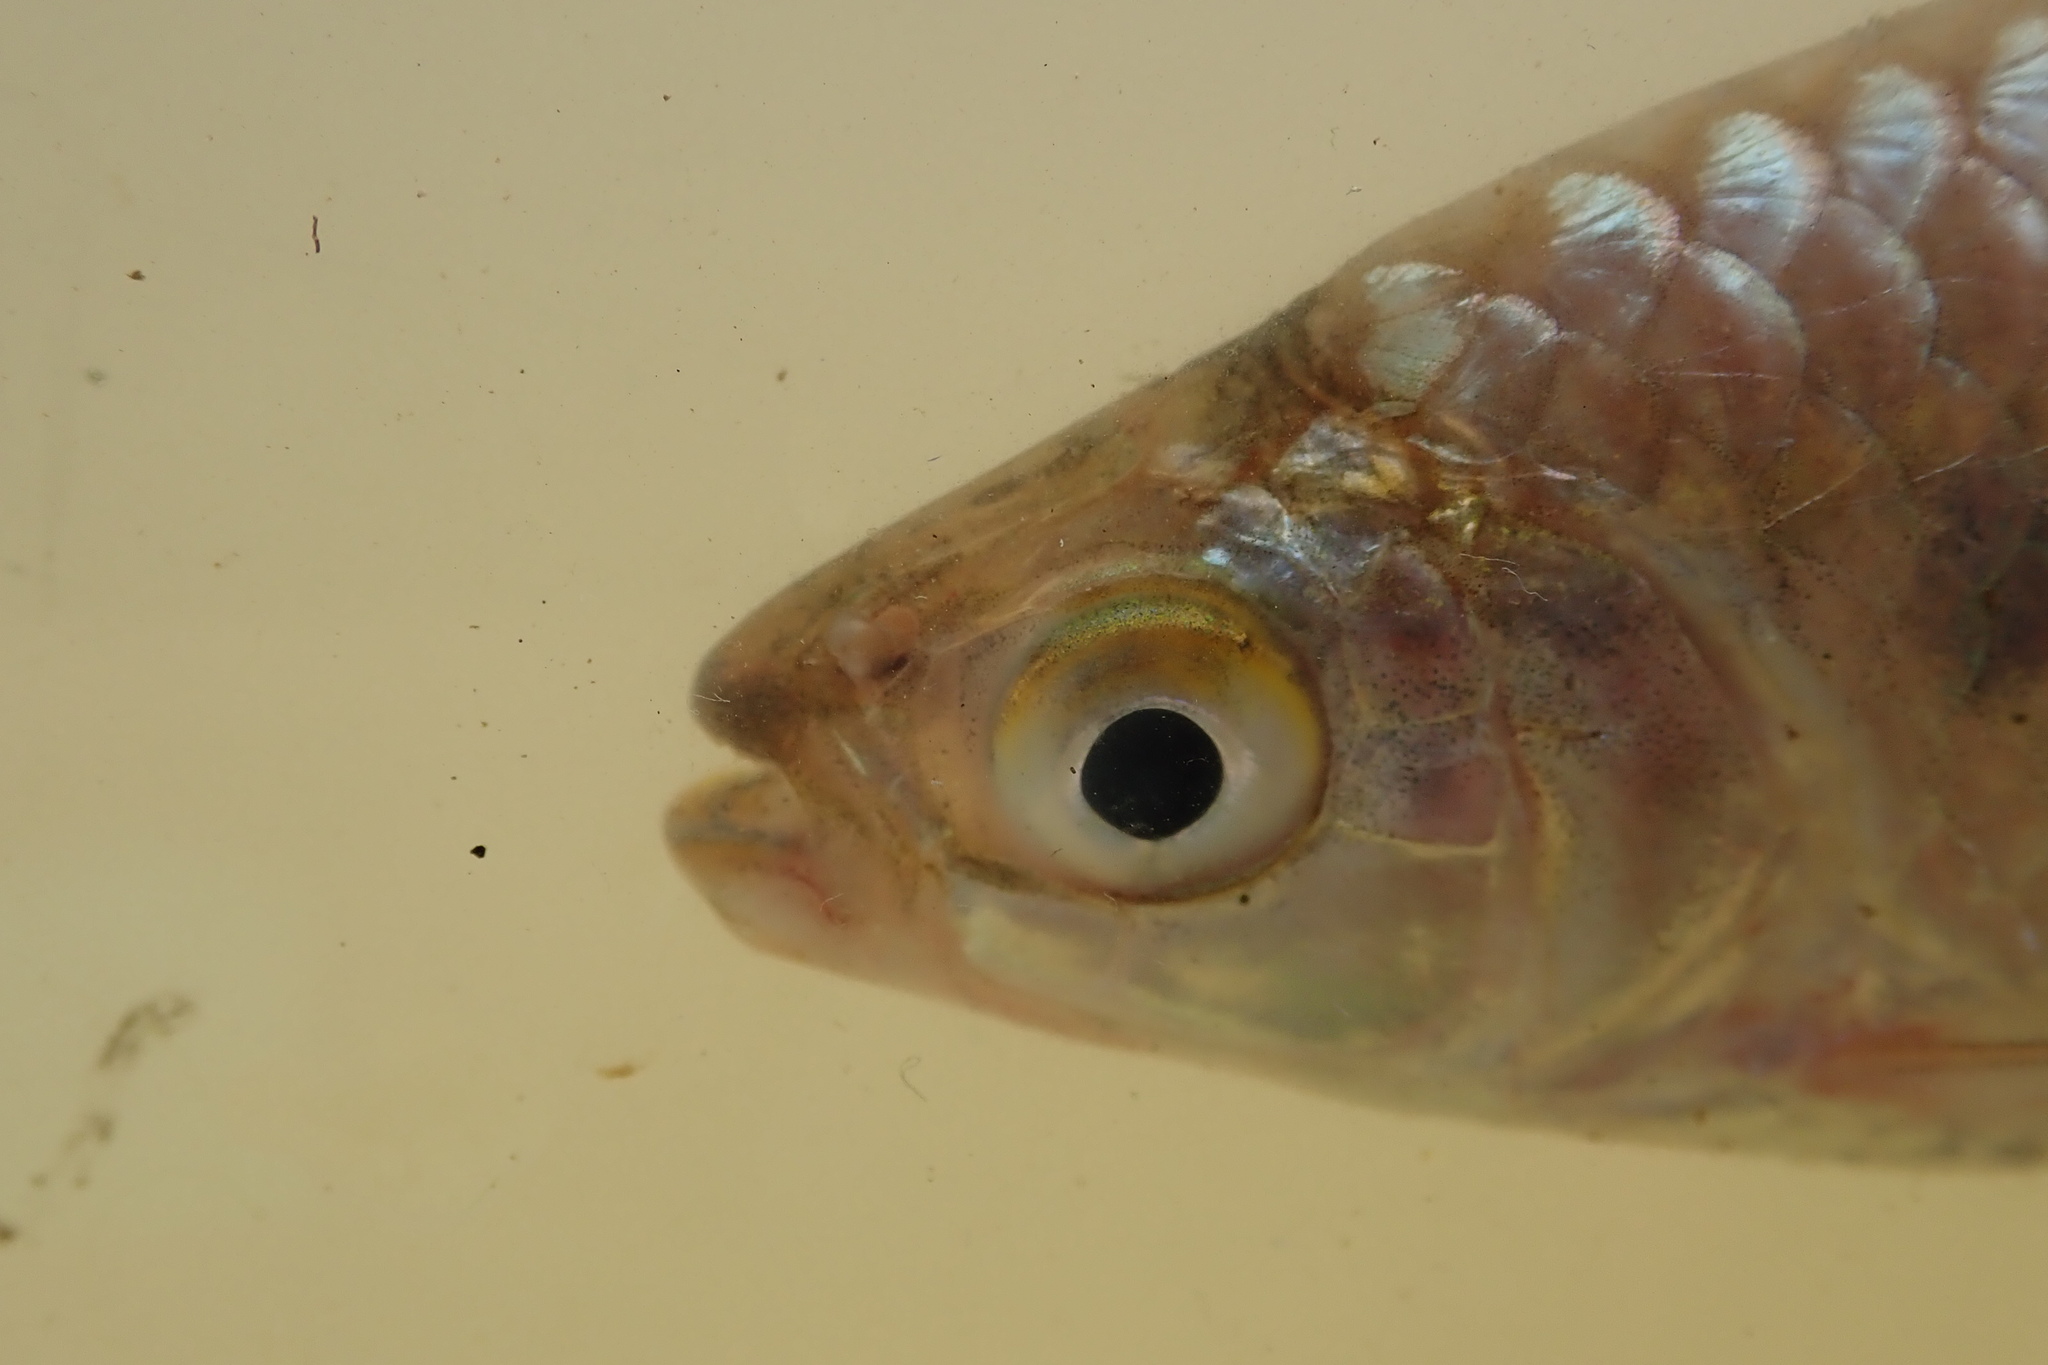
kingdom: Animalia
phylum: Chordata
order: Characiformes
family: Alestidae
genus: Brycinus
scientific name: Brycinus imberi
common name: Imberi
